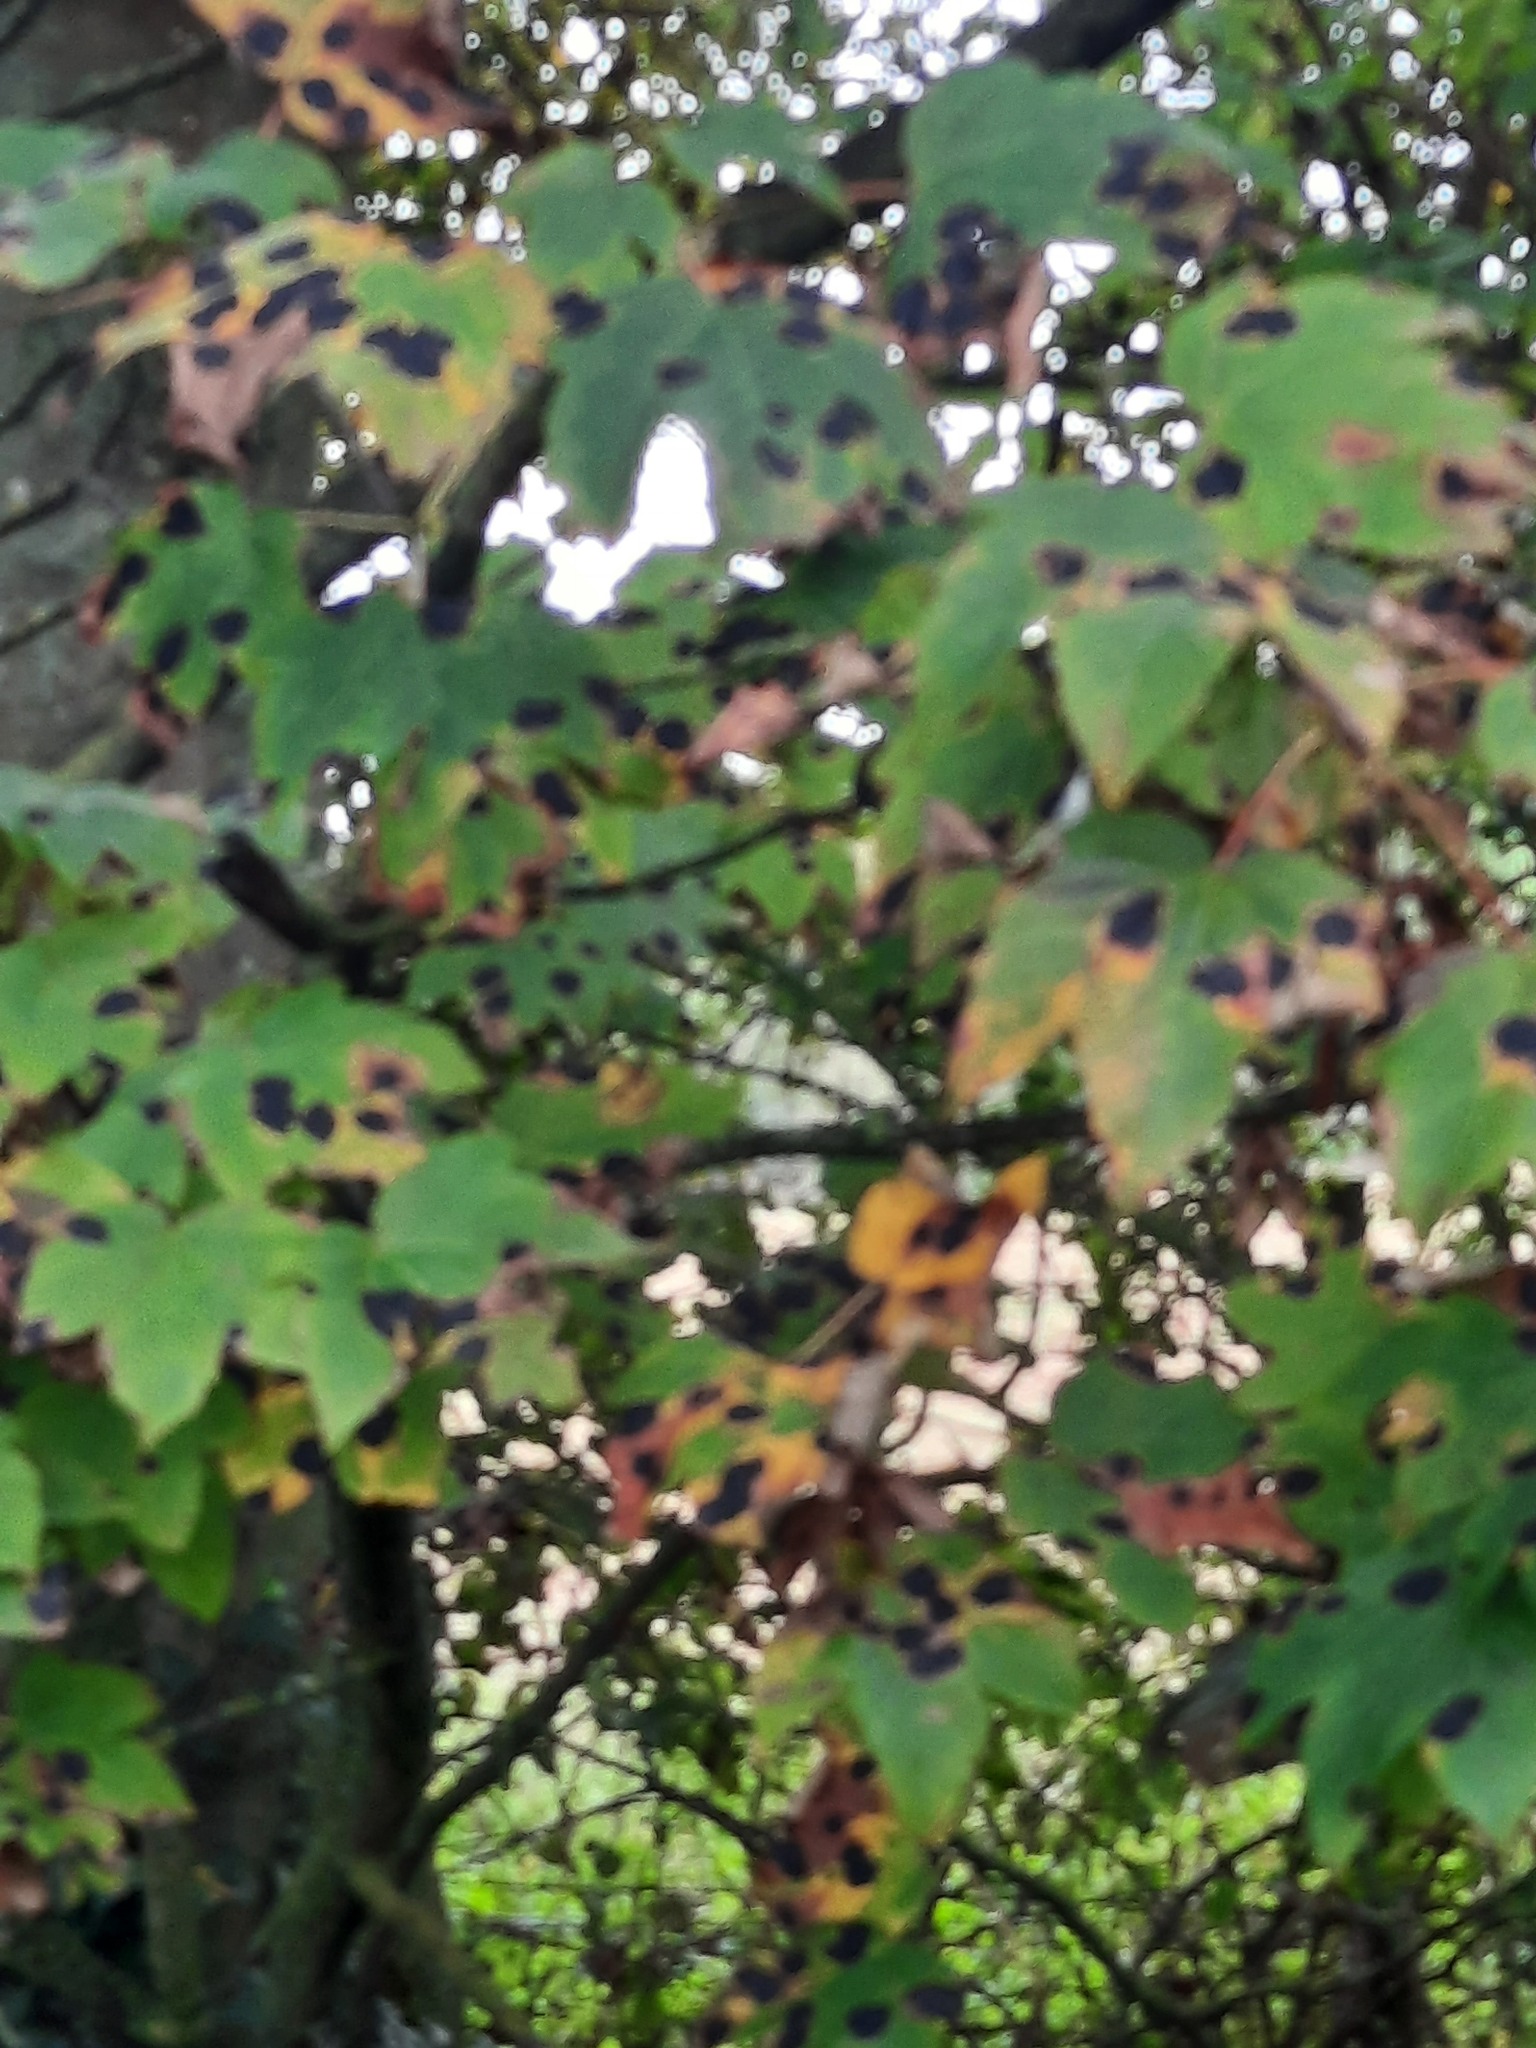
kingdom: Plantae
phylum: Tracheophyta
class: Magnoliopsida
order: Sapindales
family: Sapindaceae
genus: Acer
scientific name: Acer pseudoplatanus
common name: Sycamore
